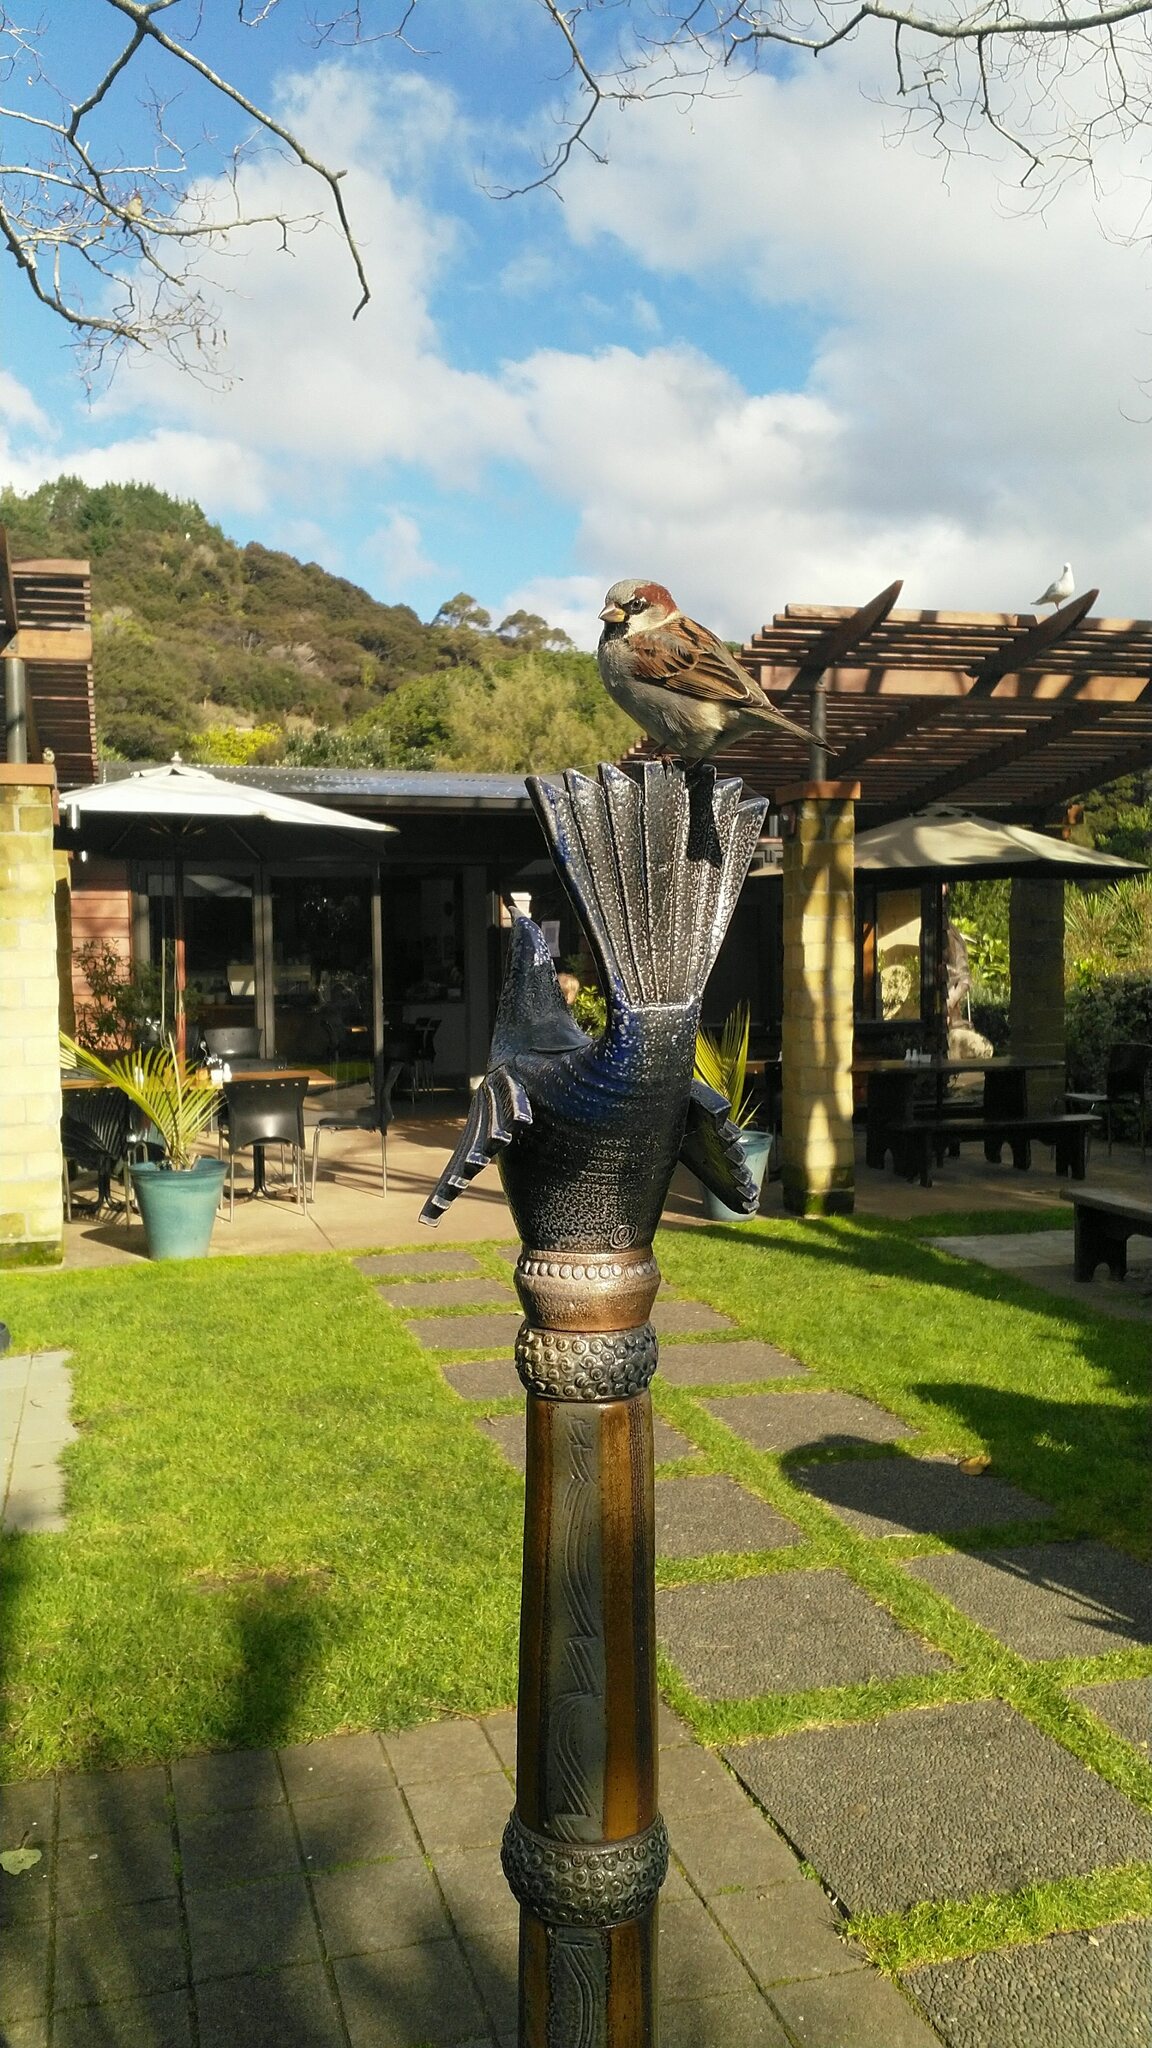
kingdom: Animalia
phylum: Chordata
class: Aves
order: Passeriformes
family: Passeridae
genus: Passer
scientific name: Passer domesticus
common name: House sparrow
